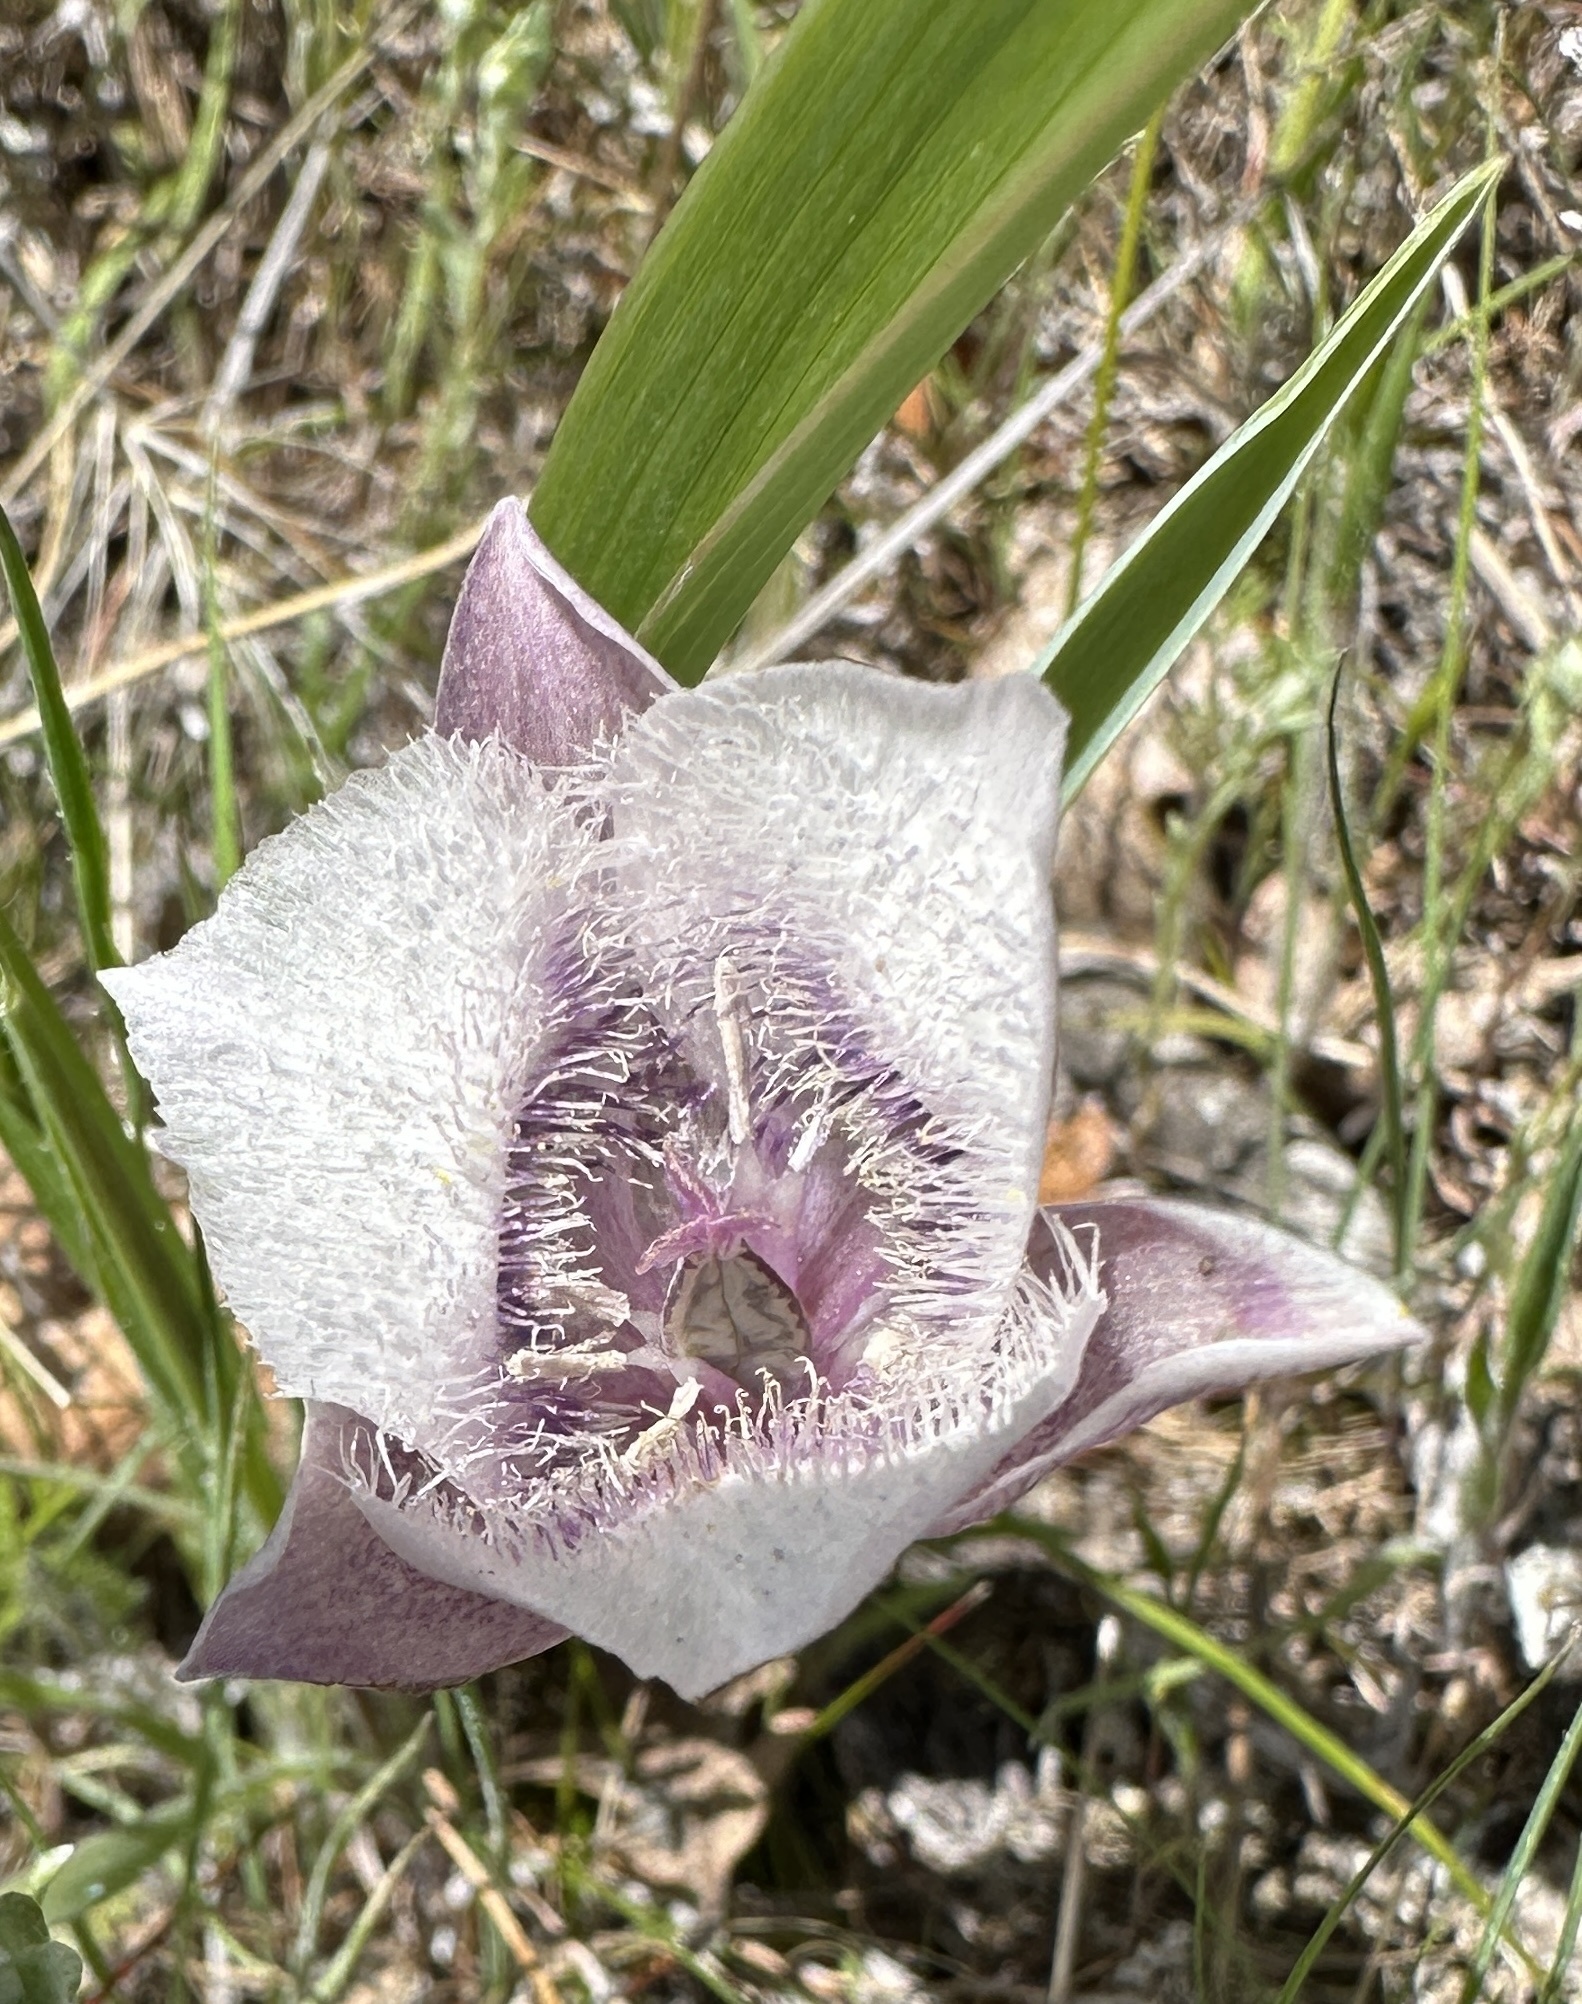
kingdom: Plantae
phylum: Tracheophyta
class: Liliopsida
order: Liliales
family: Liliaceae
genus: Calochortus
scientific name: Calochortus tolmiei
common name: Pussy-ears
